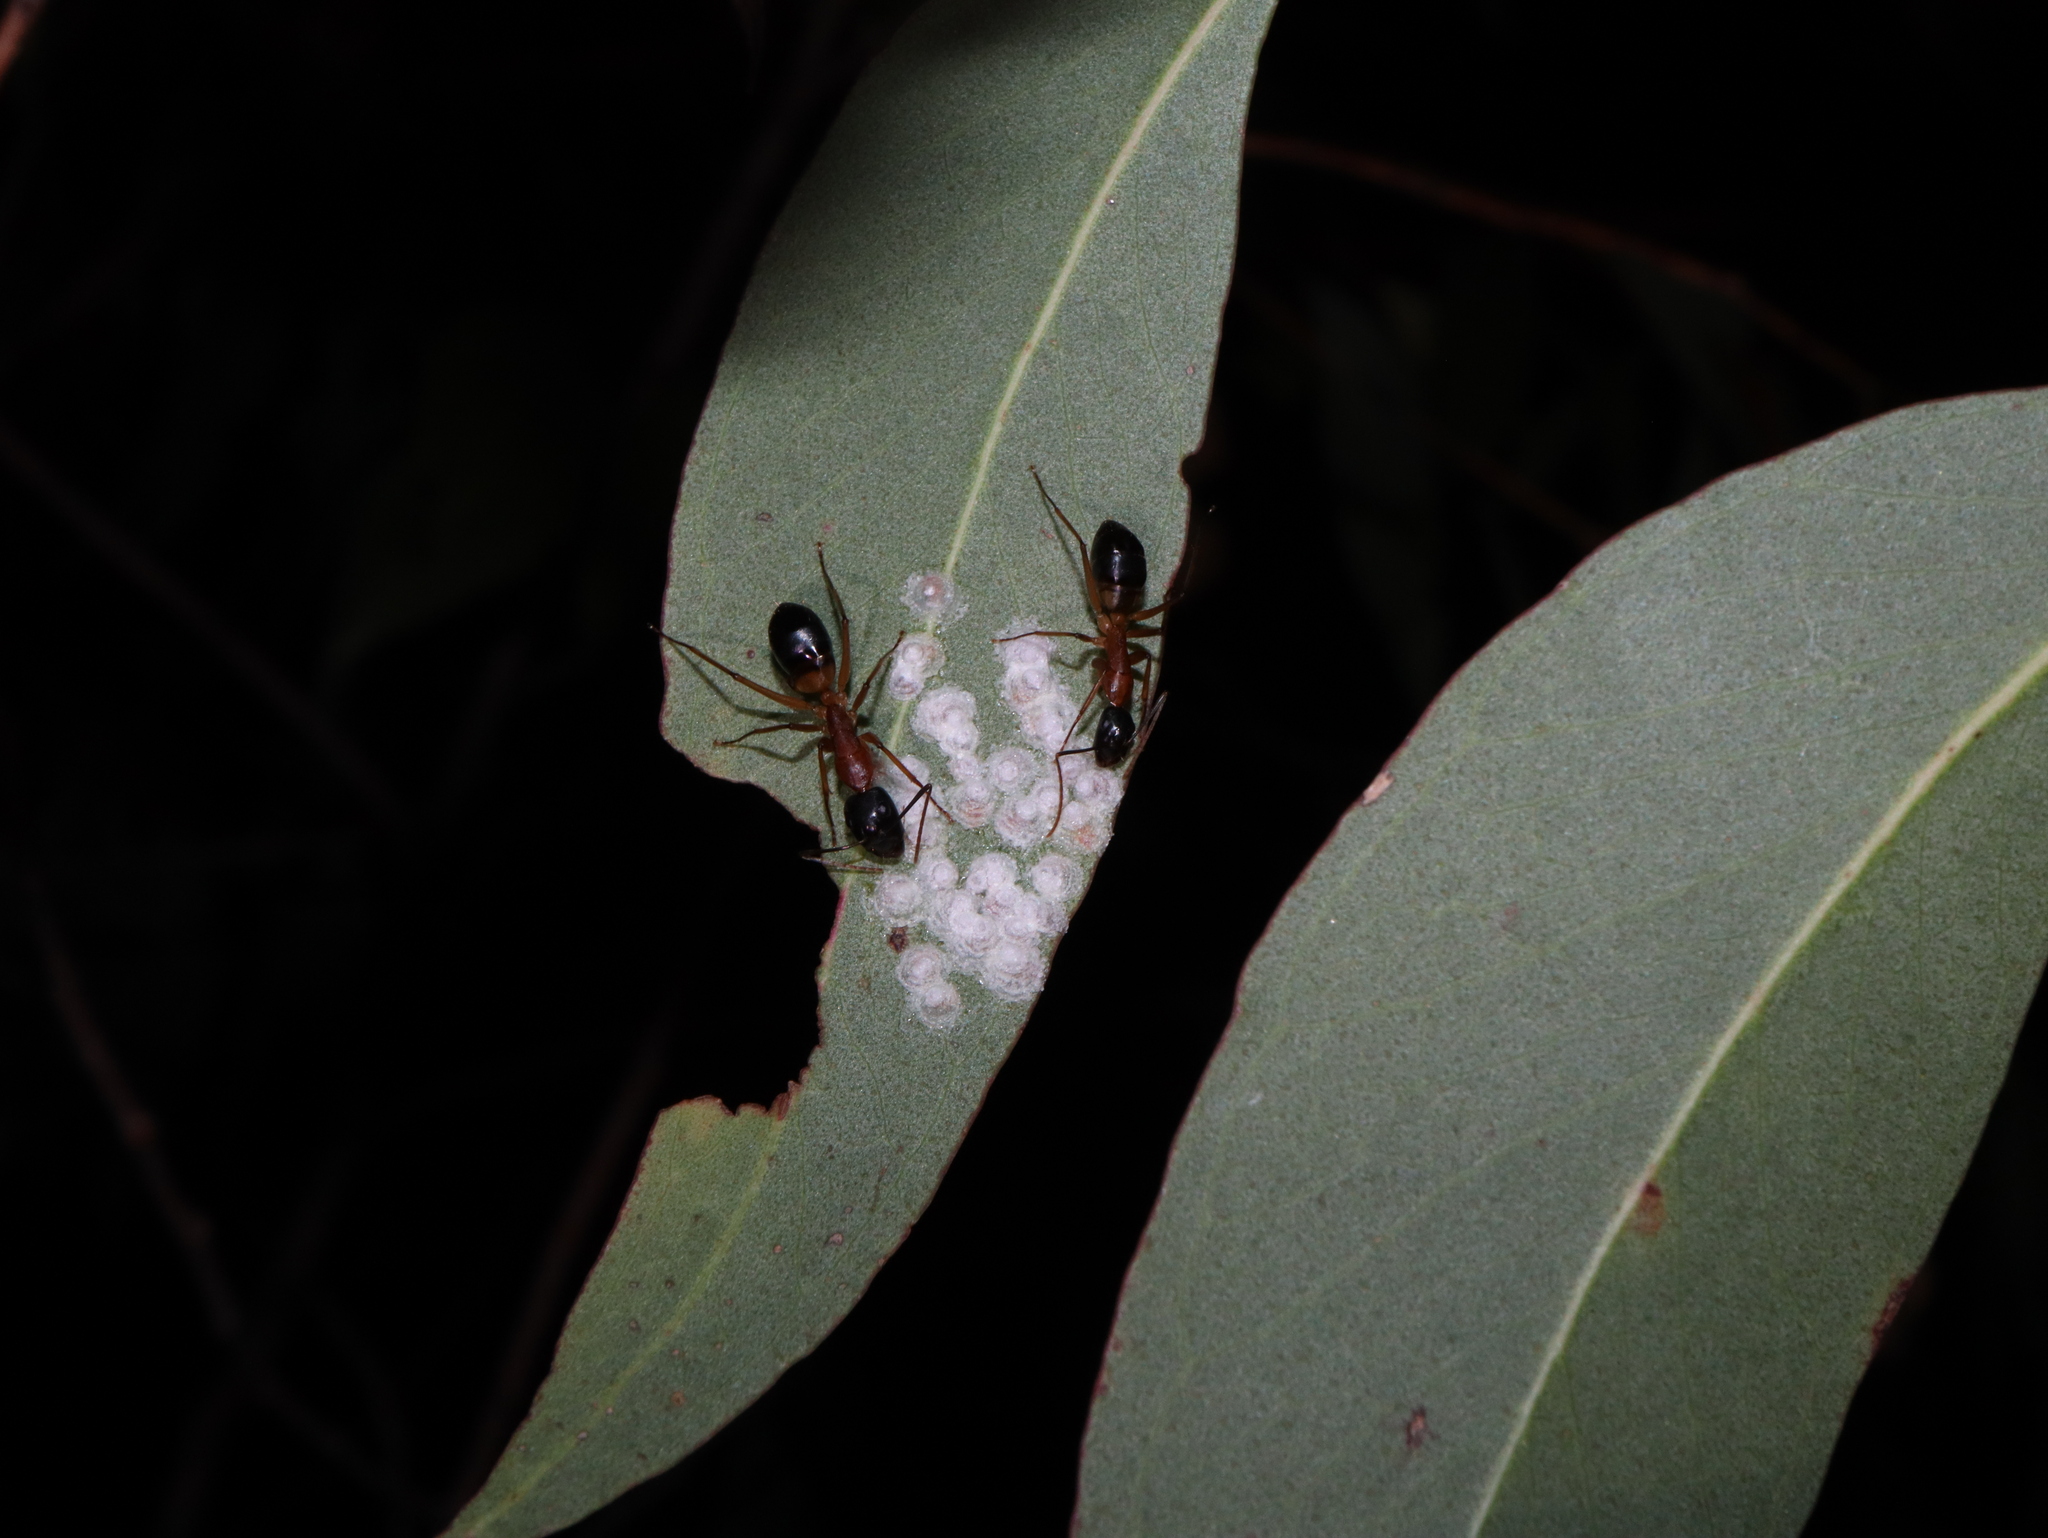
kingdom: Animalia
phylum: Arthropoda
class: Insecta
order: Hymenoptera
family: Formicidae
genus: Camponotus
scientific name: Camponotus consobrinus
